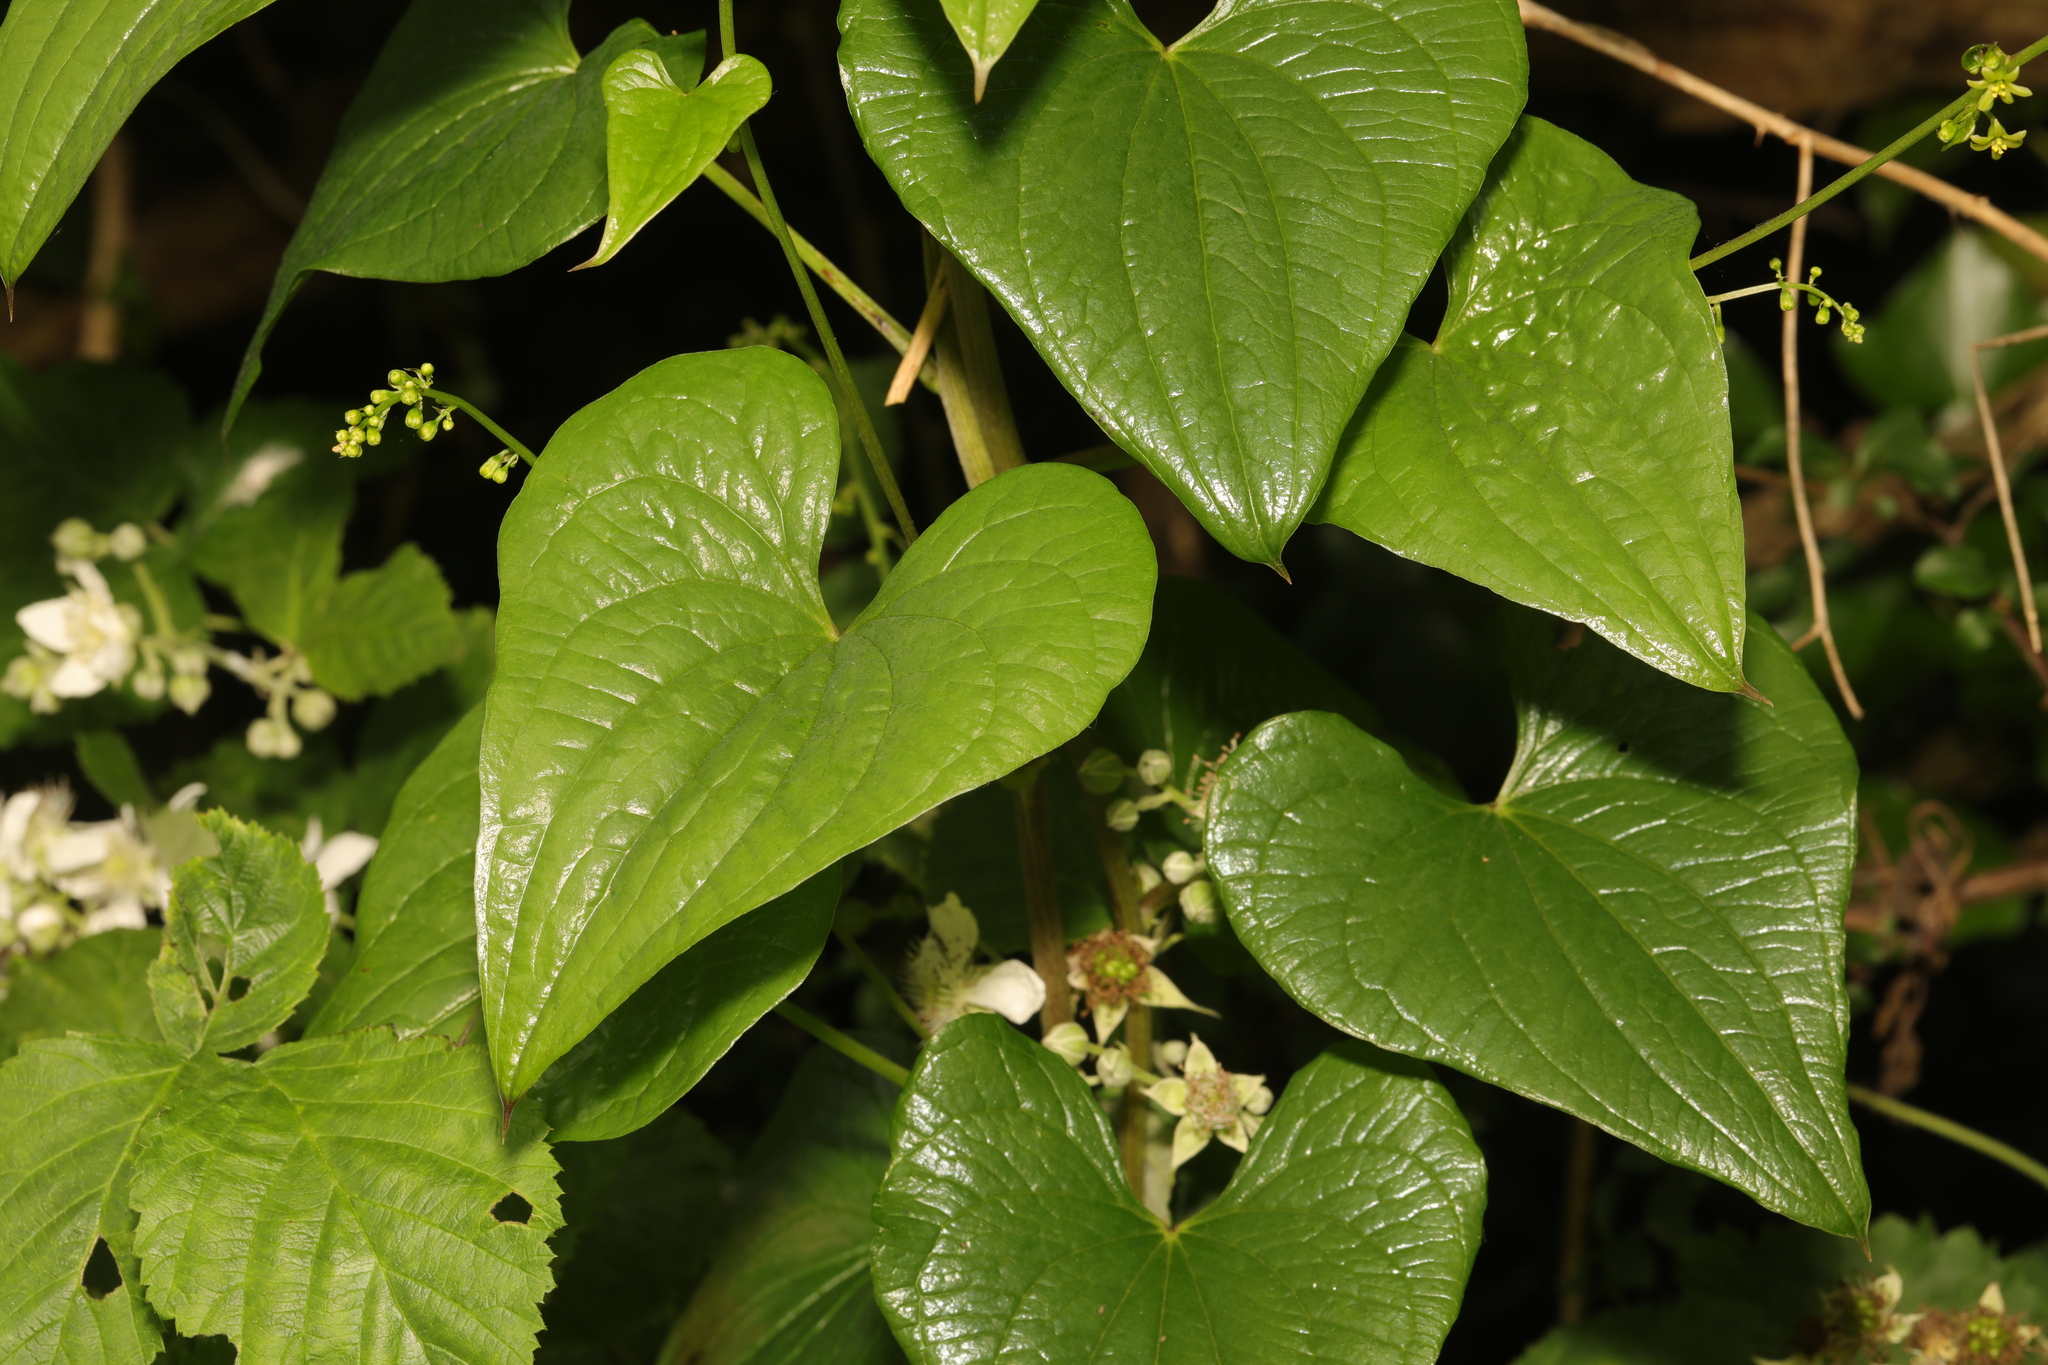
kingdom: Plantae
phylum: Tracheophyta
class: Liliopsida
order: Dioscoreales
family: Dioscoreaceae
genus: Dioscorea
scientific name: Dioscorea communis
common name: Black-bindweed
